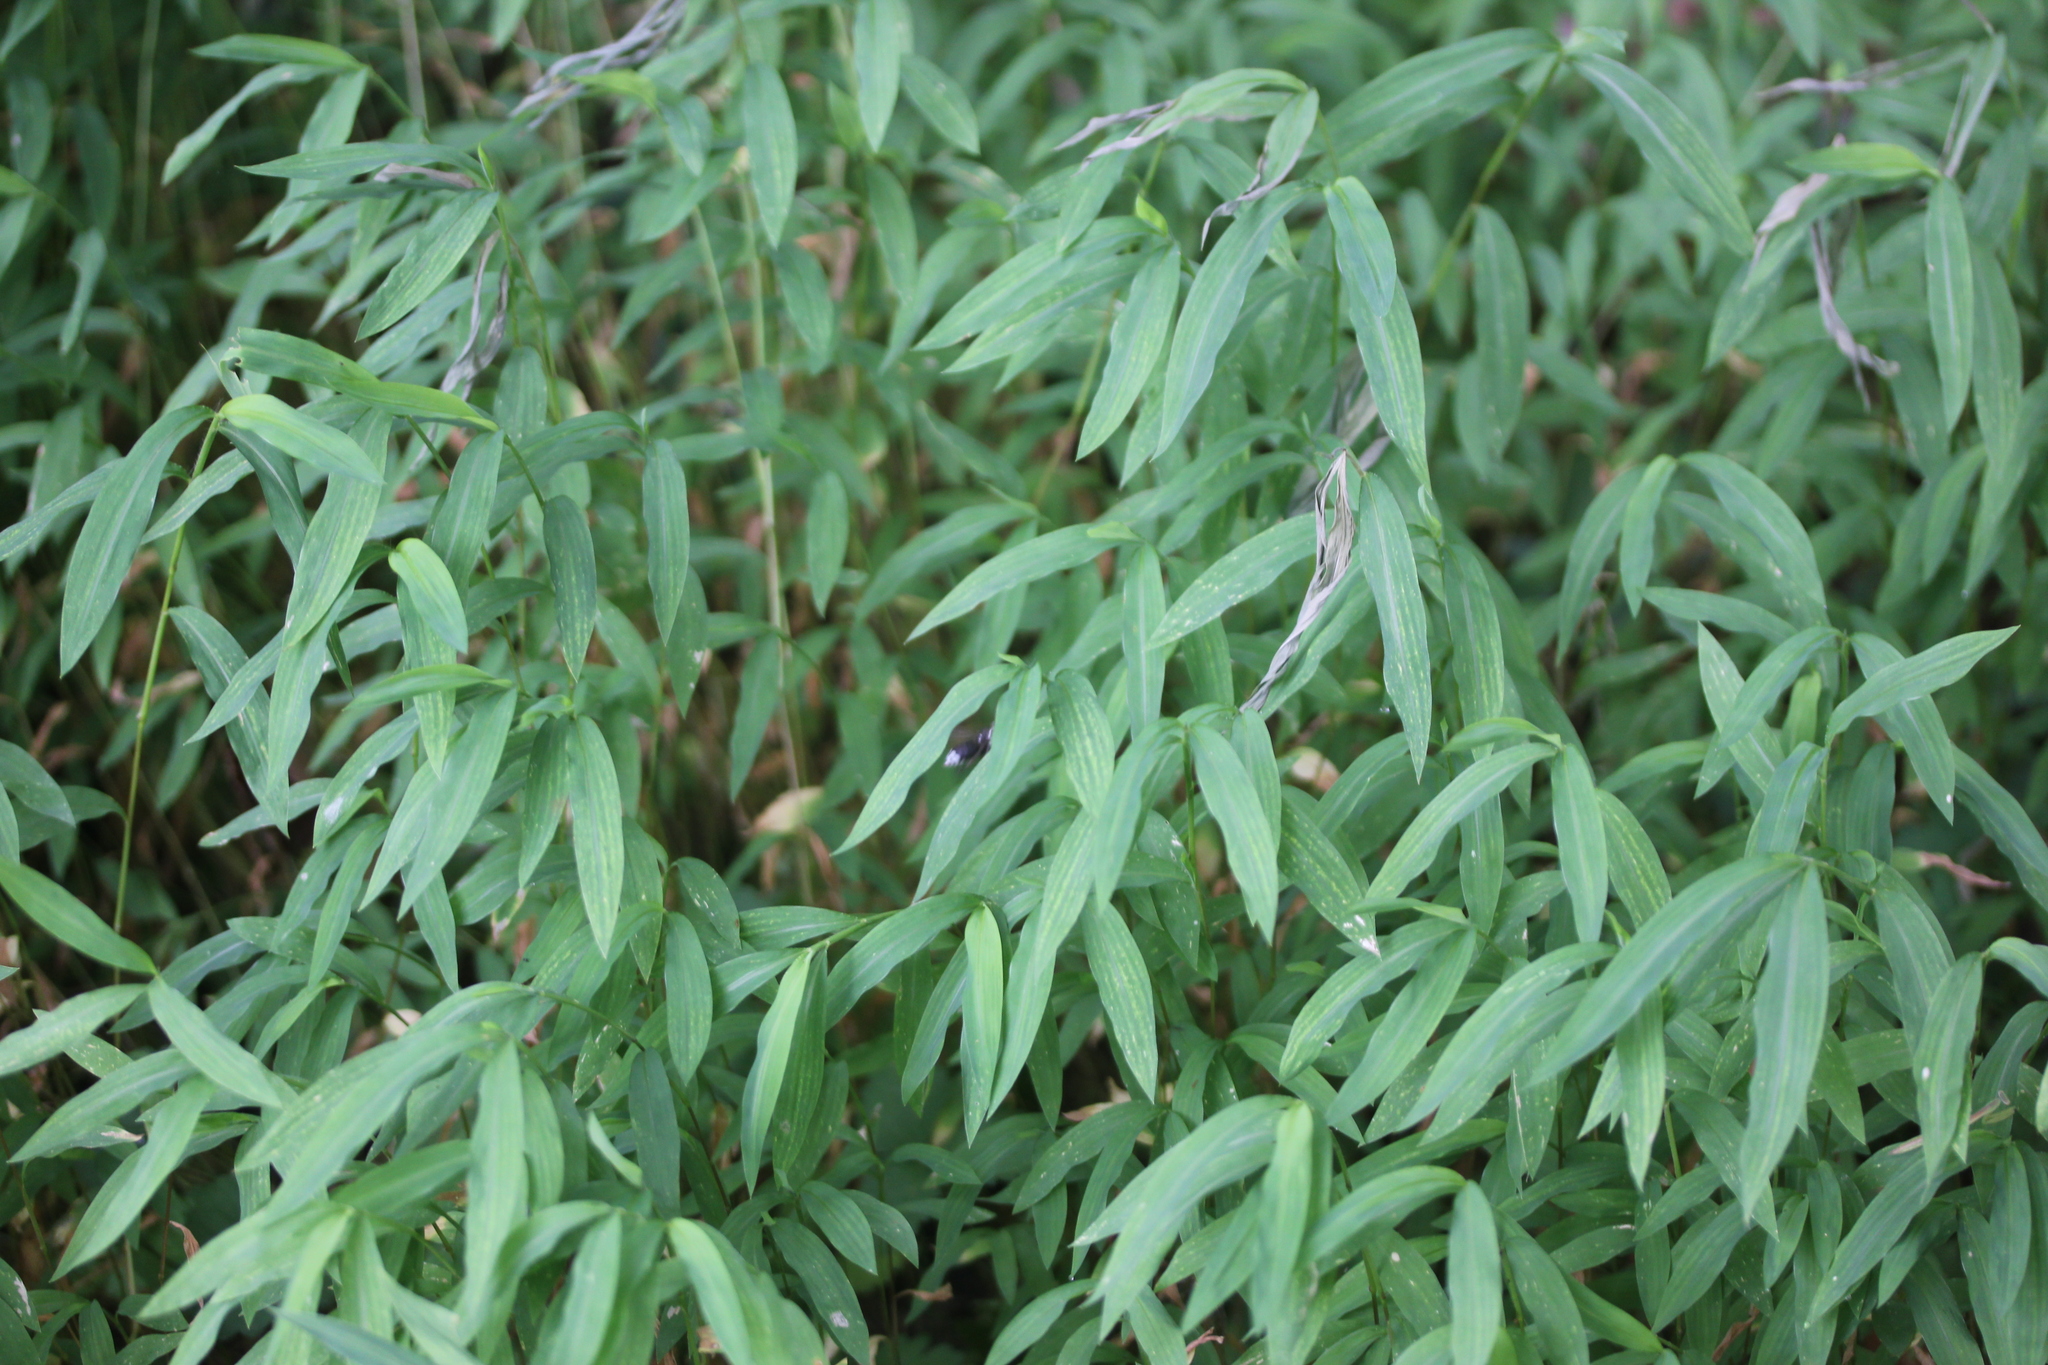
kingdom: Plantae
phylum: Tracheophyta
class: Liliopsida
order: Poales
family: Poaceae
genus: Microstegium
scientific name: Microstegium vimineum
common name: Japanese stiltgrass
